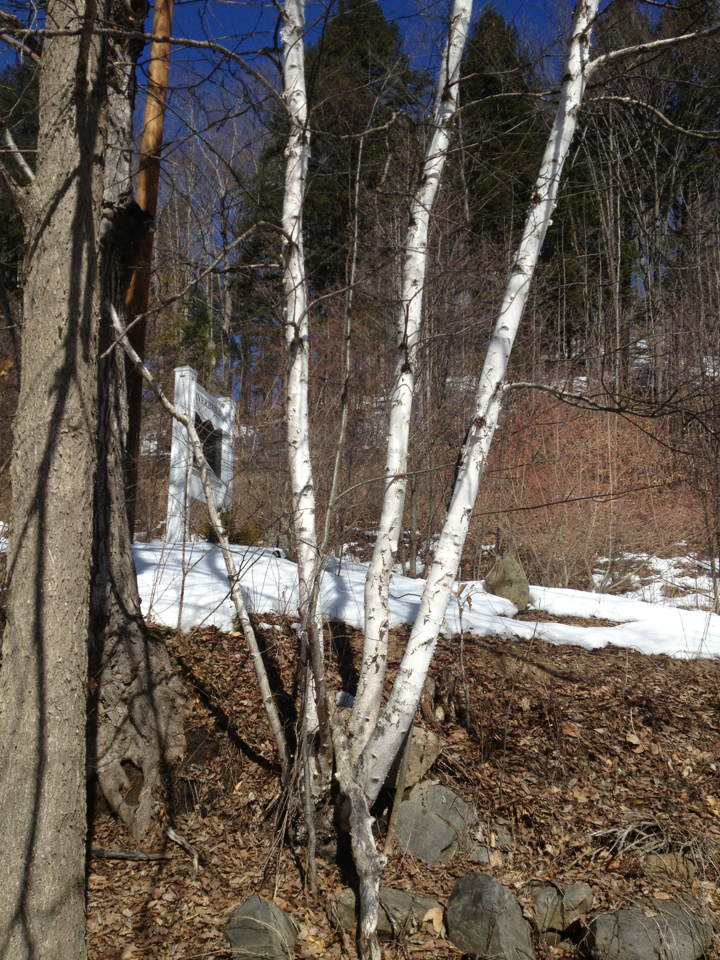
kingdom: Plantae
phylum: Tracheophyta
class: Magnoliopsida
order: Fagales
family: Betulaceae
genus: Betula
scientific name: Betula papyrifera
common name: Paper birch
